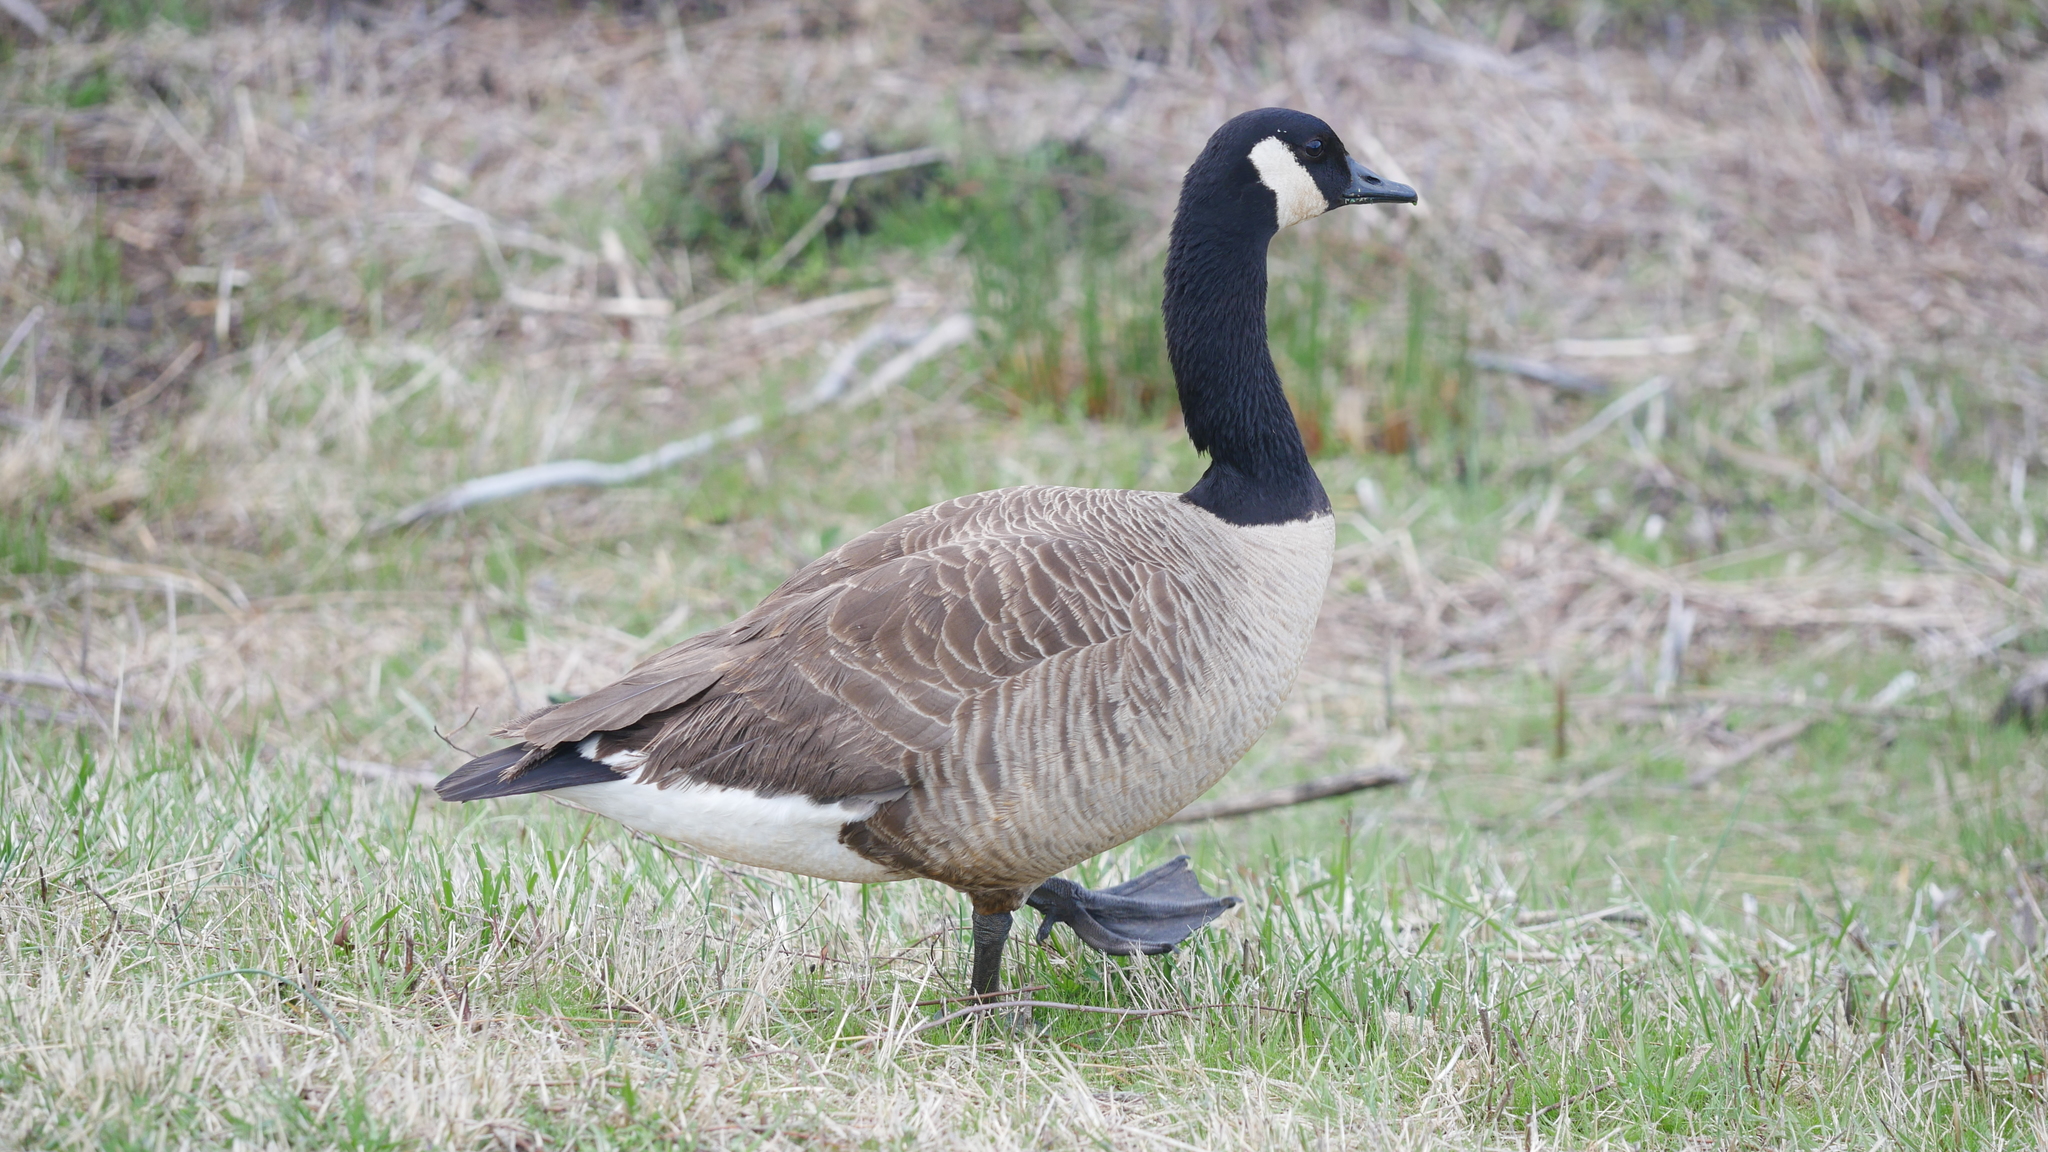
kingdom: Animalia
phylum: Chordata
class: Aves
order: Anseriformes
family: Anatidae
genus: Branta
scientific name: Branta canadensis
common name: Canada goose
